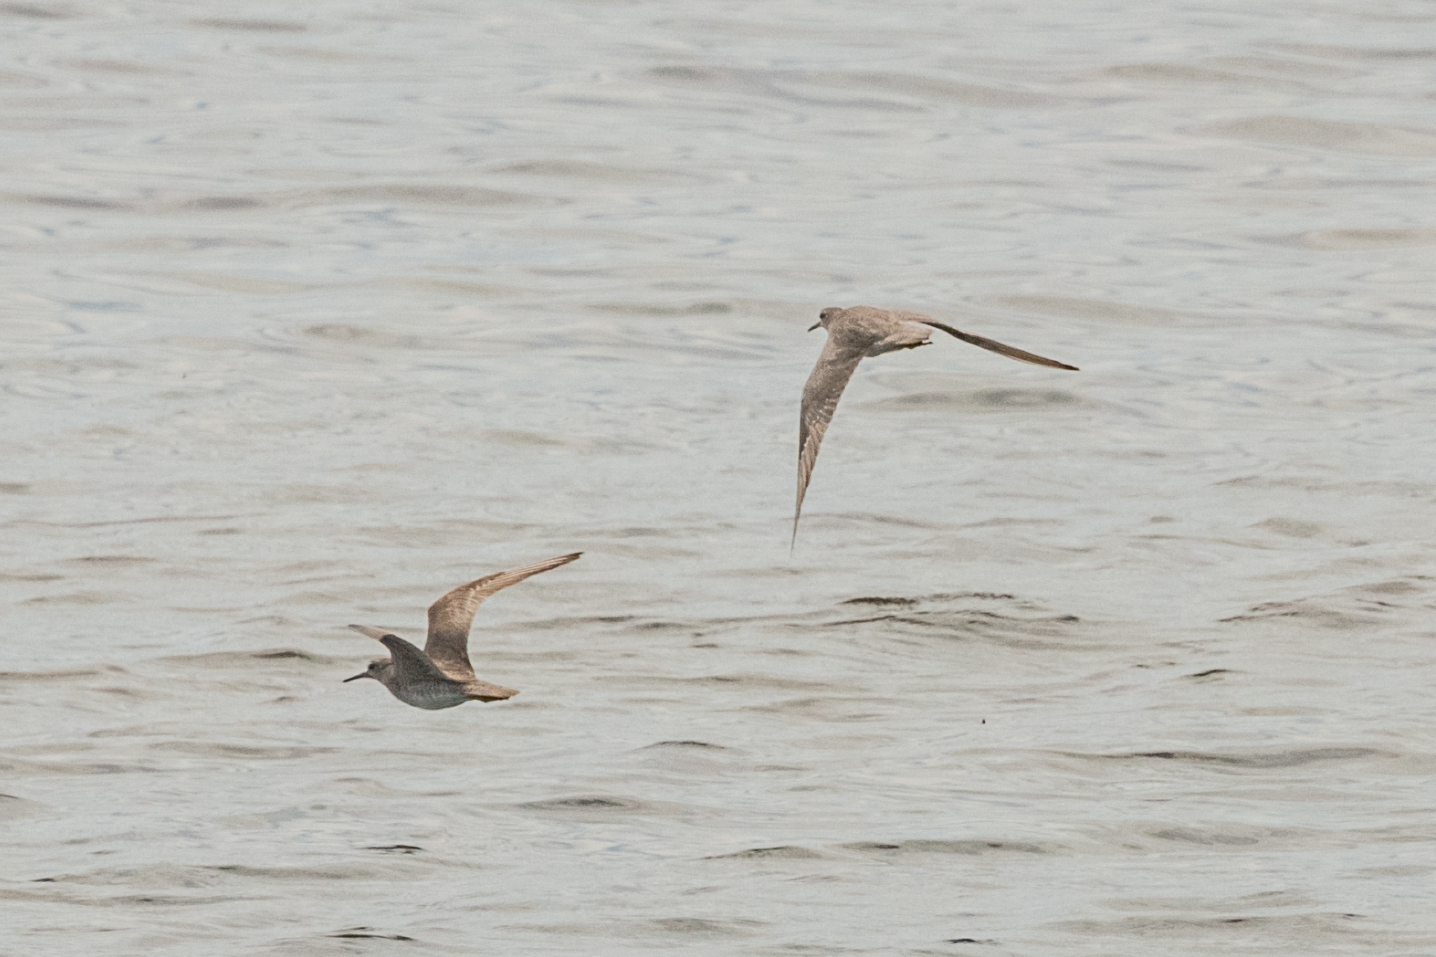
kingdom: Animalia
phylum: Chordata
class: Aves
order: Charadriiformes
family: Scolopacidae
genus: Tringa
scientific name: Tringa brevipes
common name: Grey-tailed tattler
